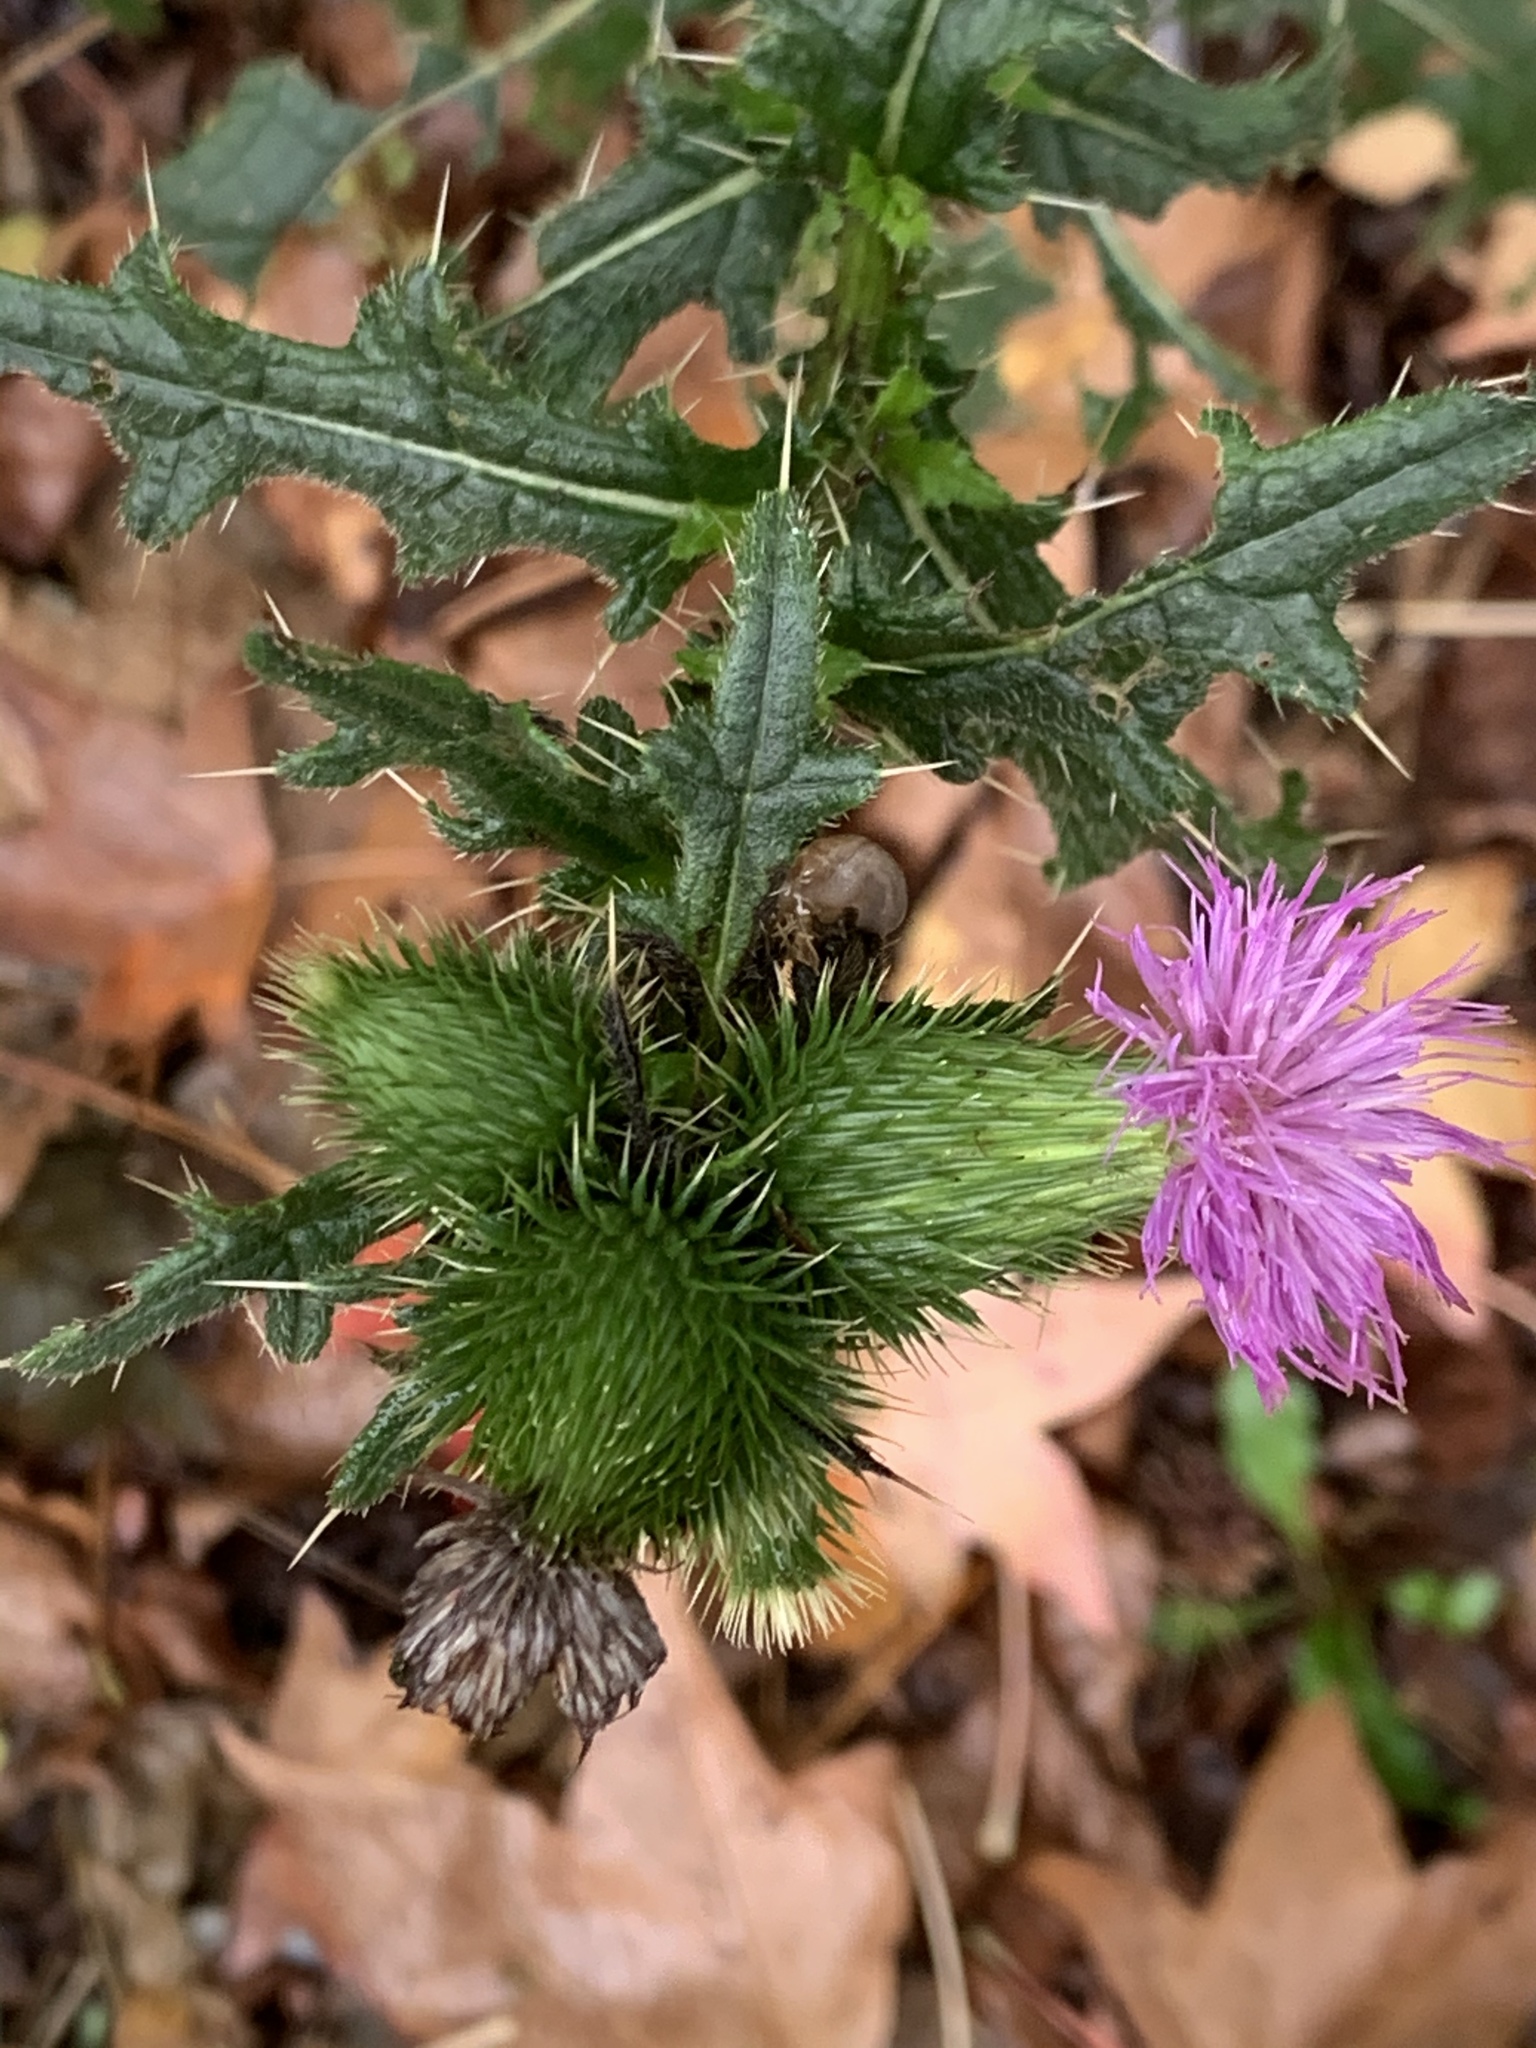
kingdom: Plantae
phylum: Tracheophyta
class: Magnoliopsida
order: Asterales
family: Asteraceae
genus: Cirsium
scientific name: Cirsium vulgare
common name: Bull thistle
